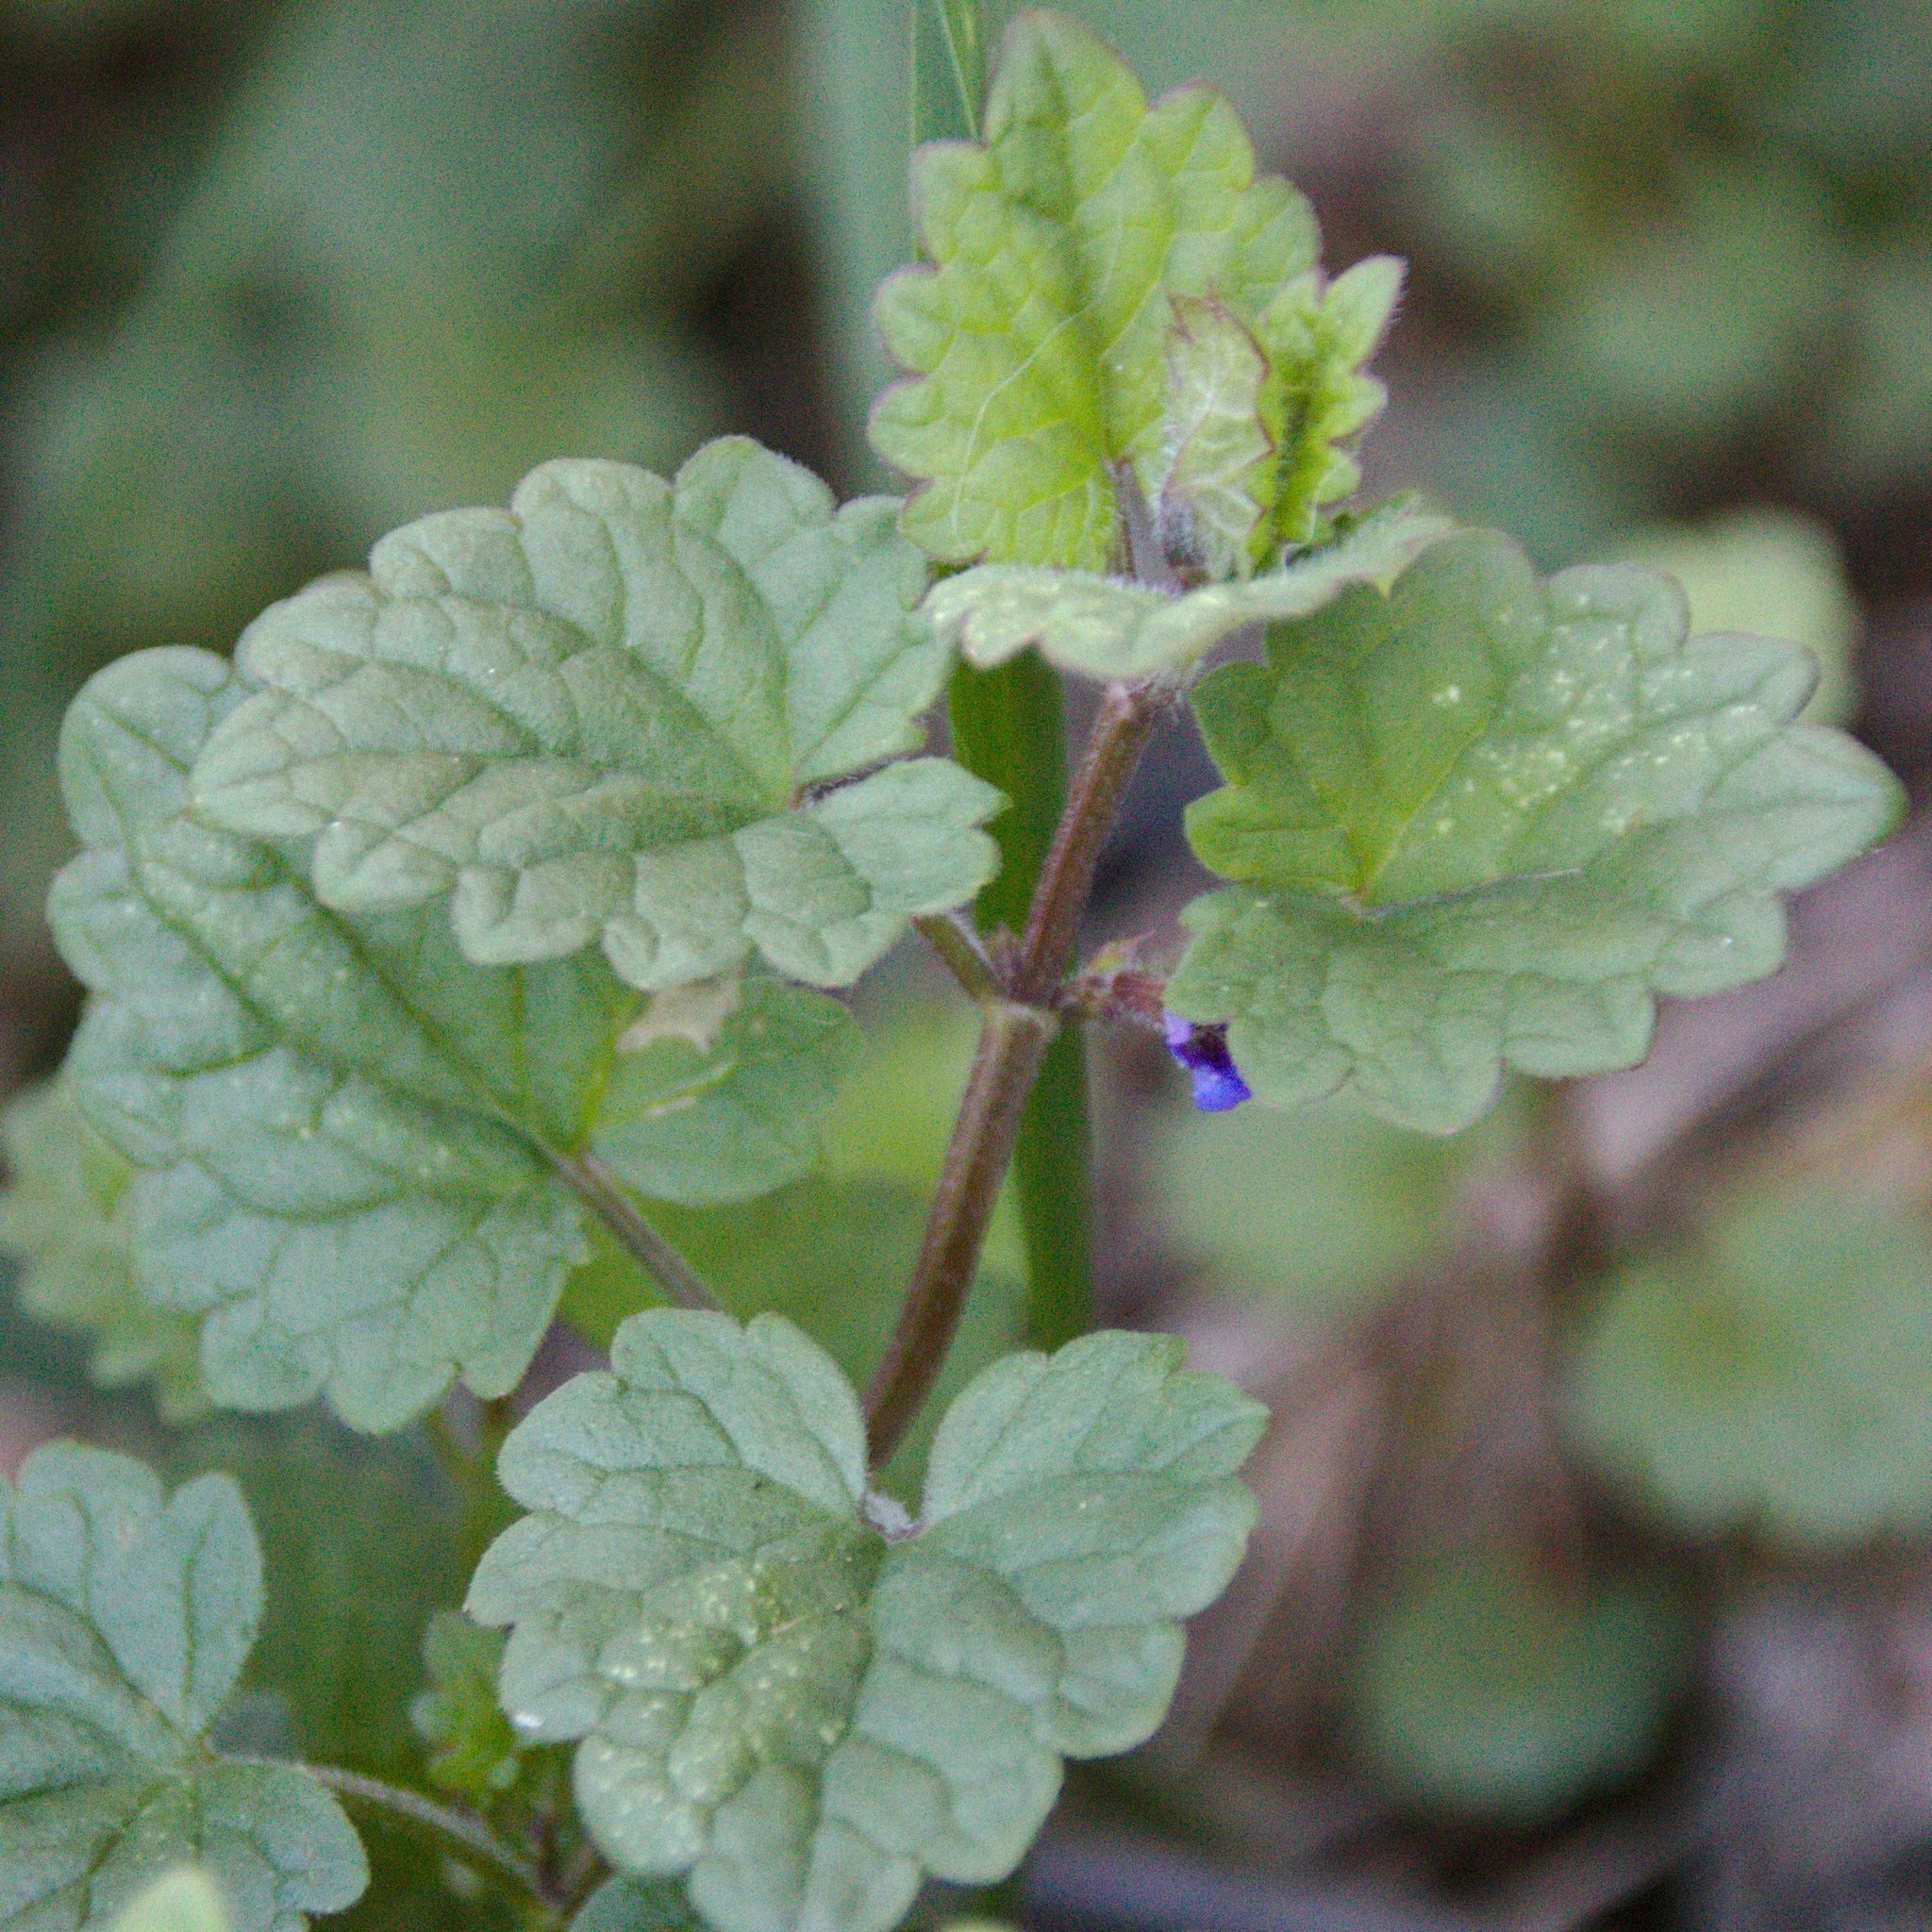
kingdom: Plantae
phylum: Tracheophyta
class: Magnoliopsida
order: Lamiales
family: Lamiaceae
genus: Glechoma
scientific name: Glechoma hederacea
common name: Ground ivy
